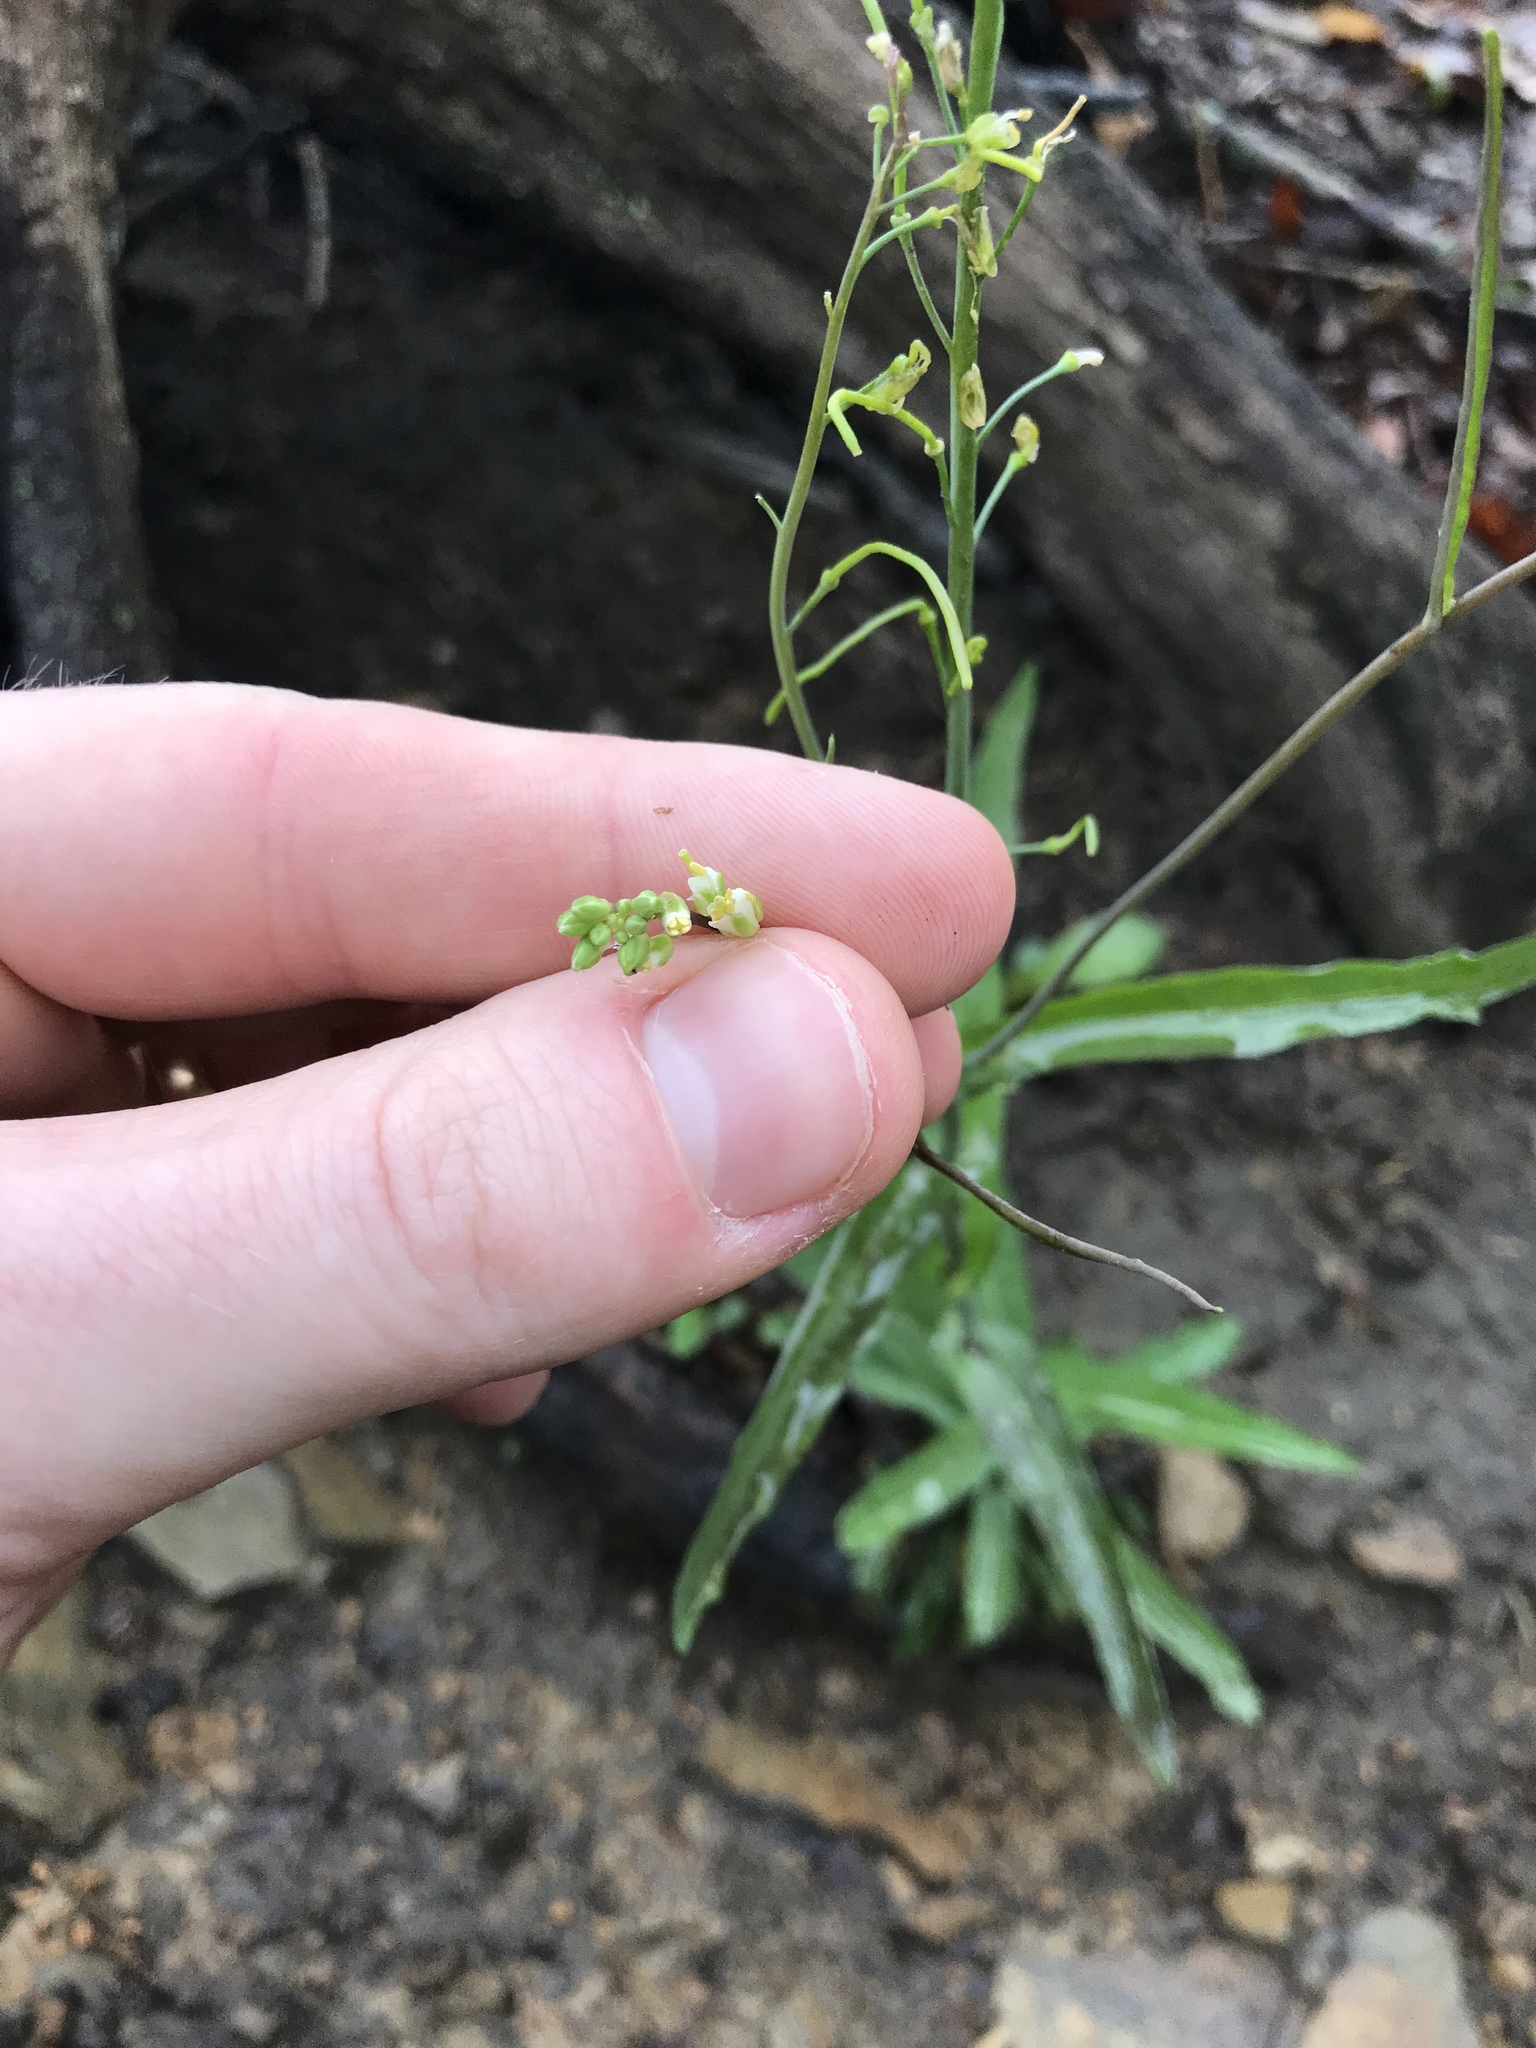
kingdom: Plantae
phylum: Tracheophyta
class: Magnoliopsida
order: Brassicales
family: Brassicaceae
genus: Borodinia
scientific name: Borodinia laevigata
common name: Smooth rockcress
